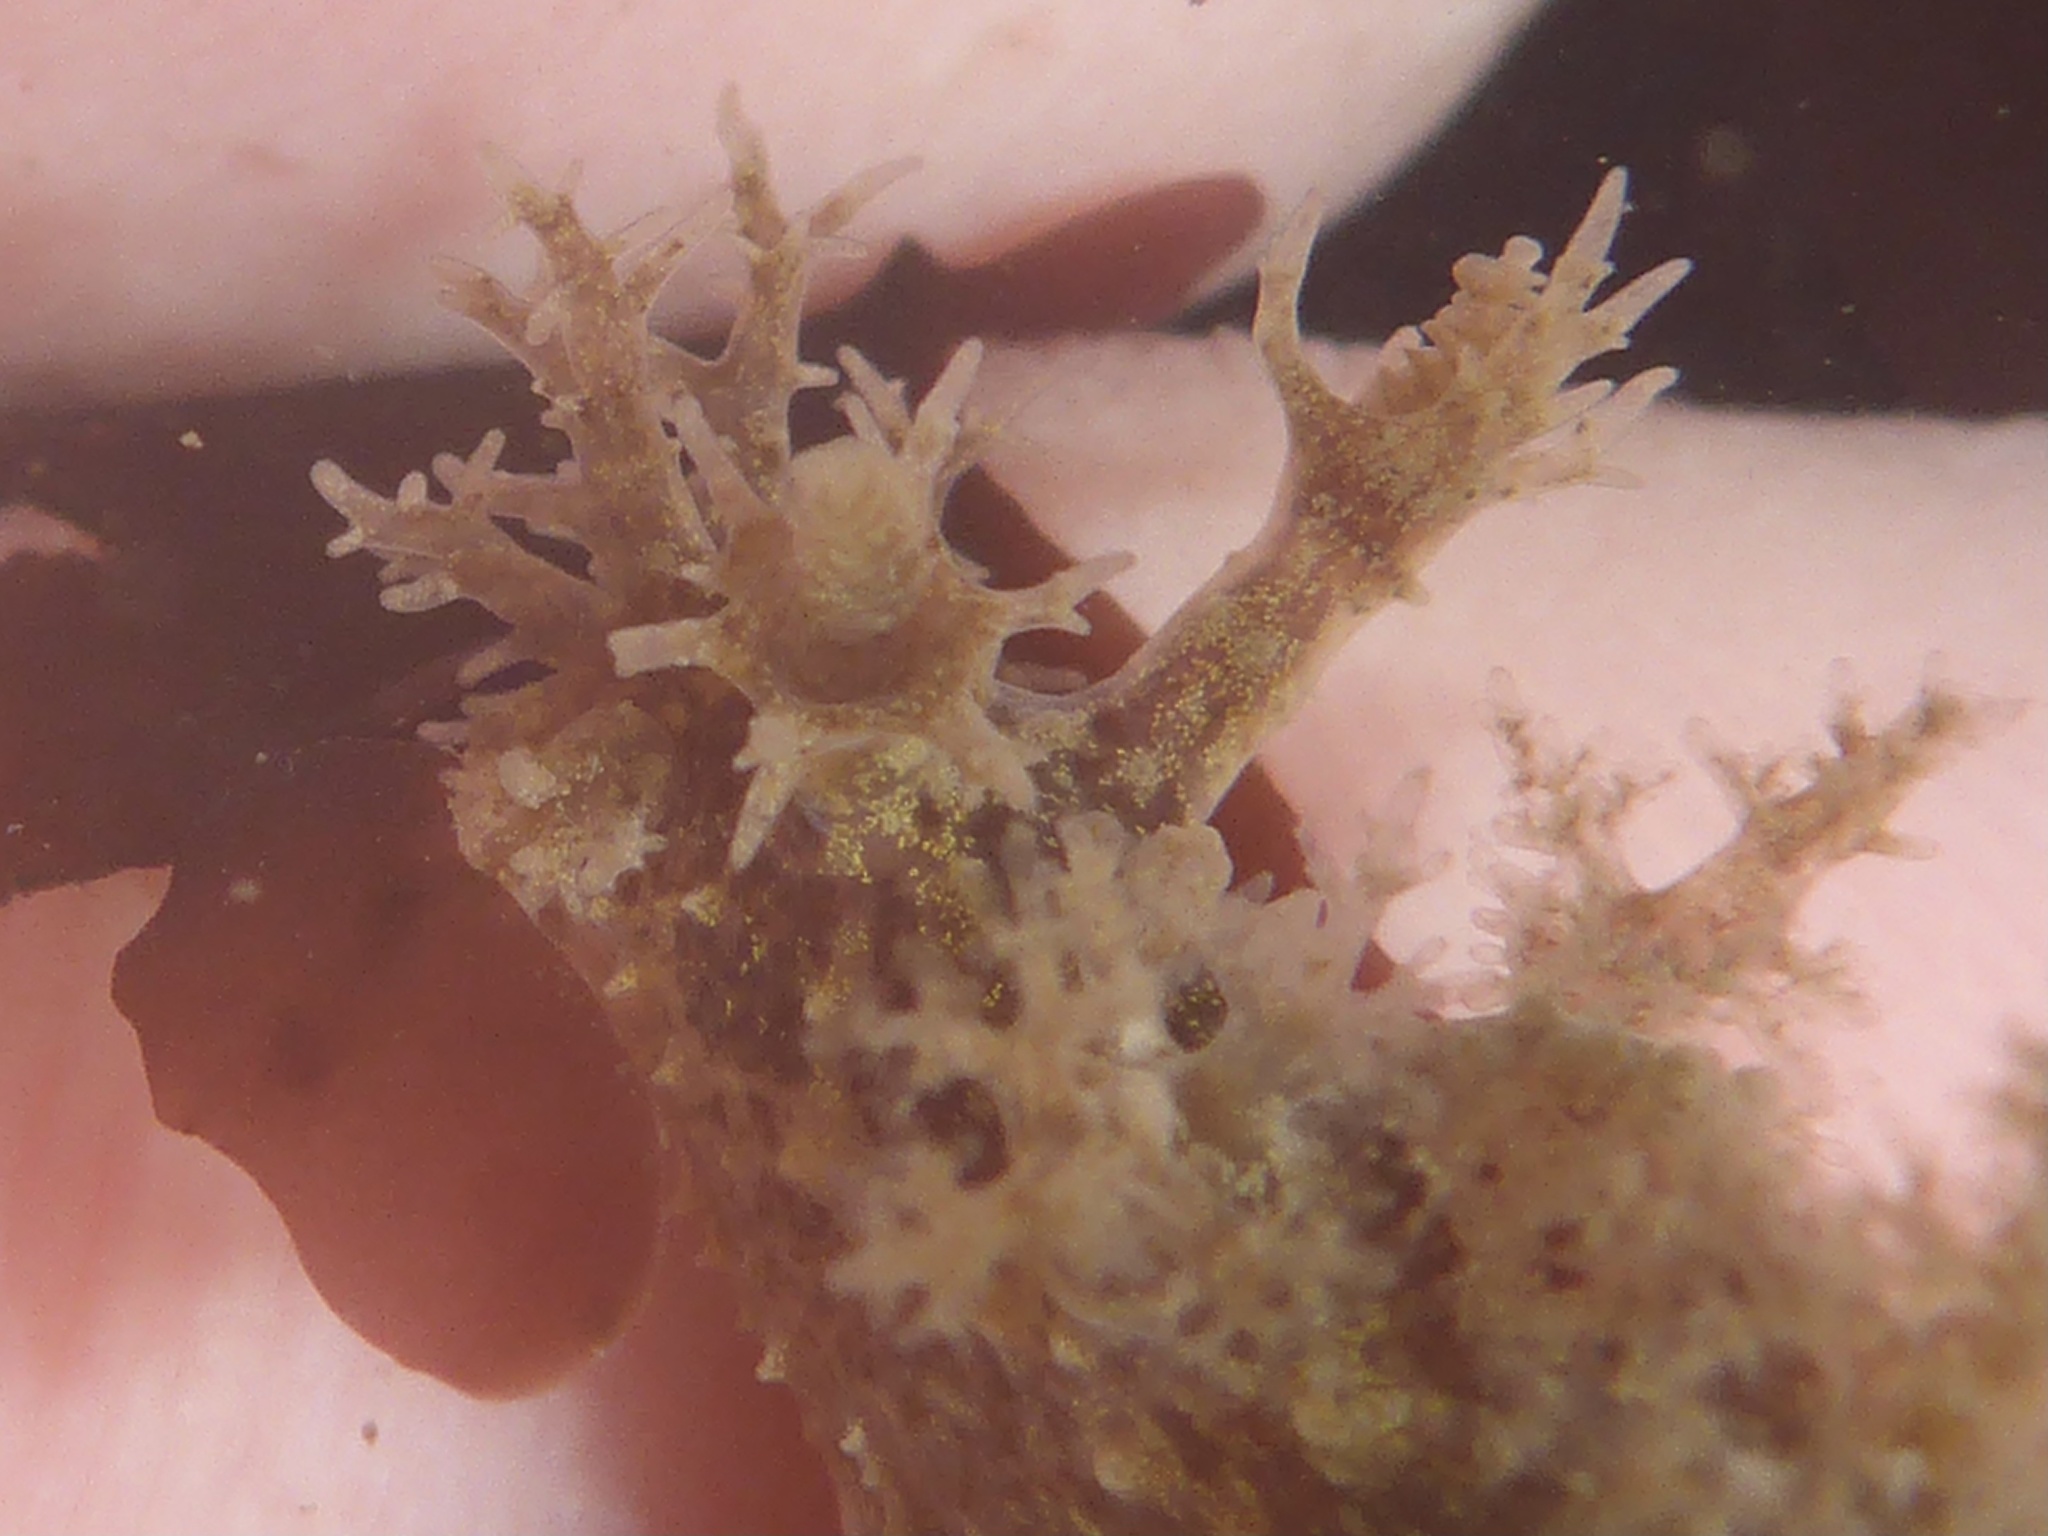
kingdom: Animalia
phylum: Mollusca
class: Gastropoda
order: Nudibranchia
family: Dendronotidae
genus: Dendronotus
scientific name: Dendronotus venustus
